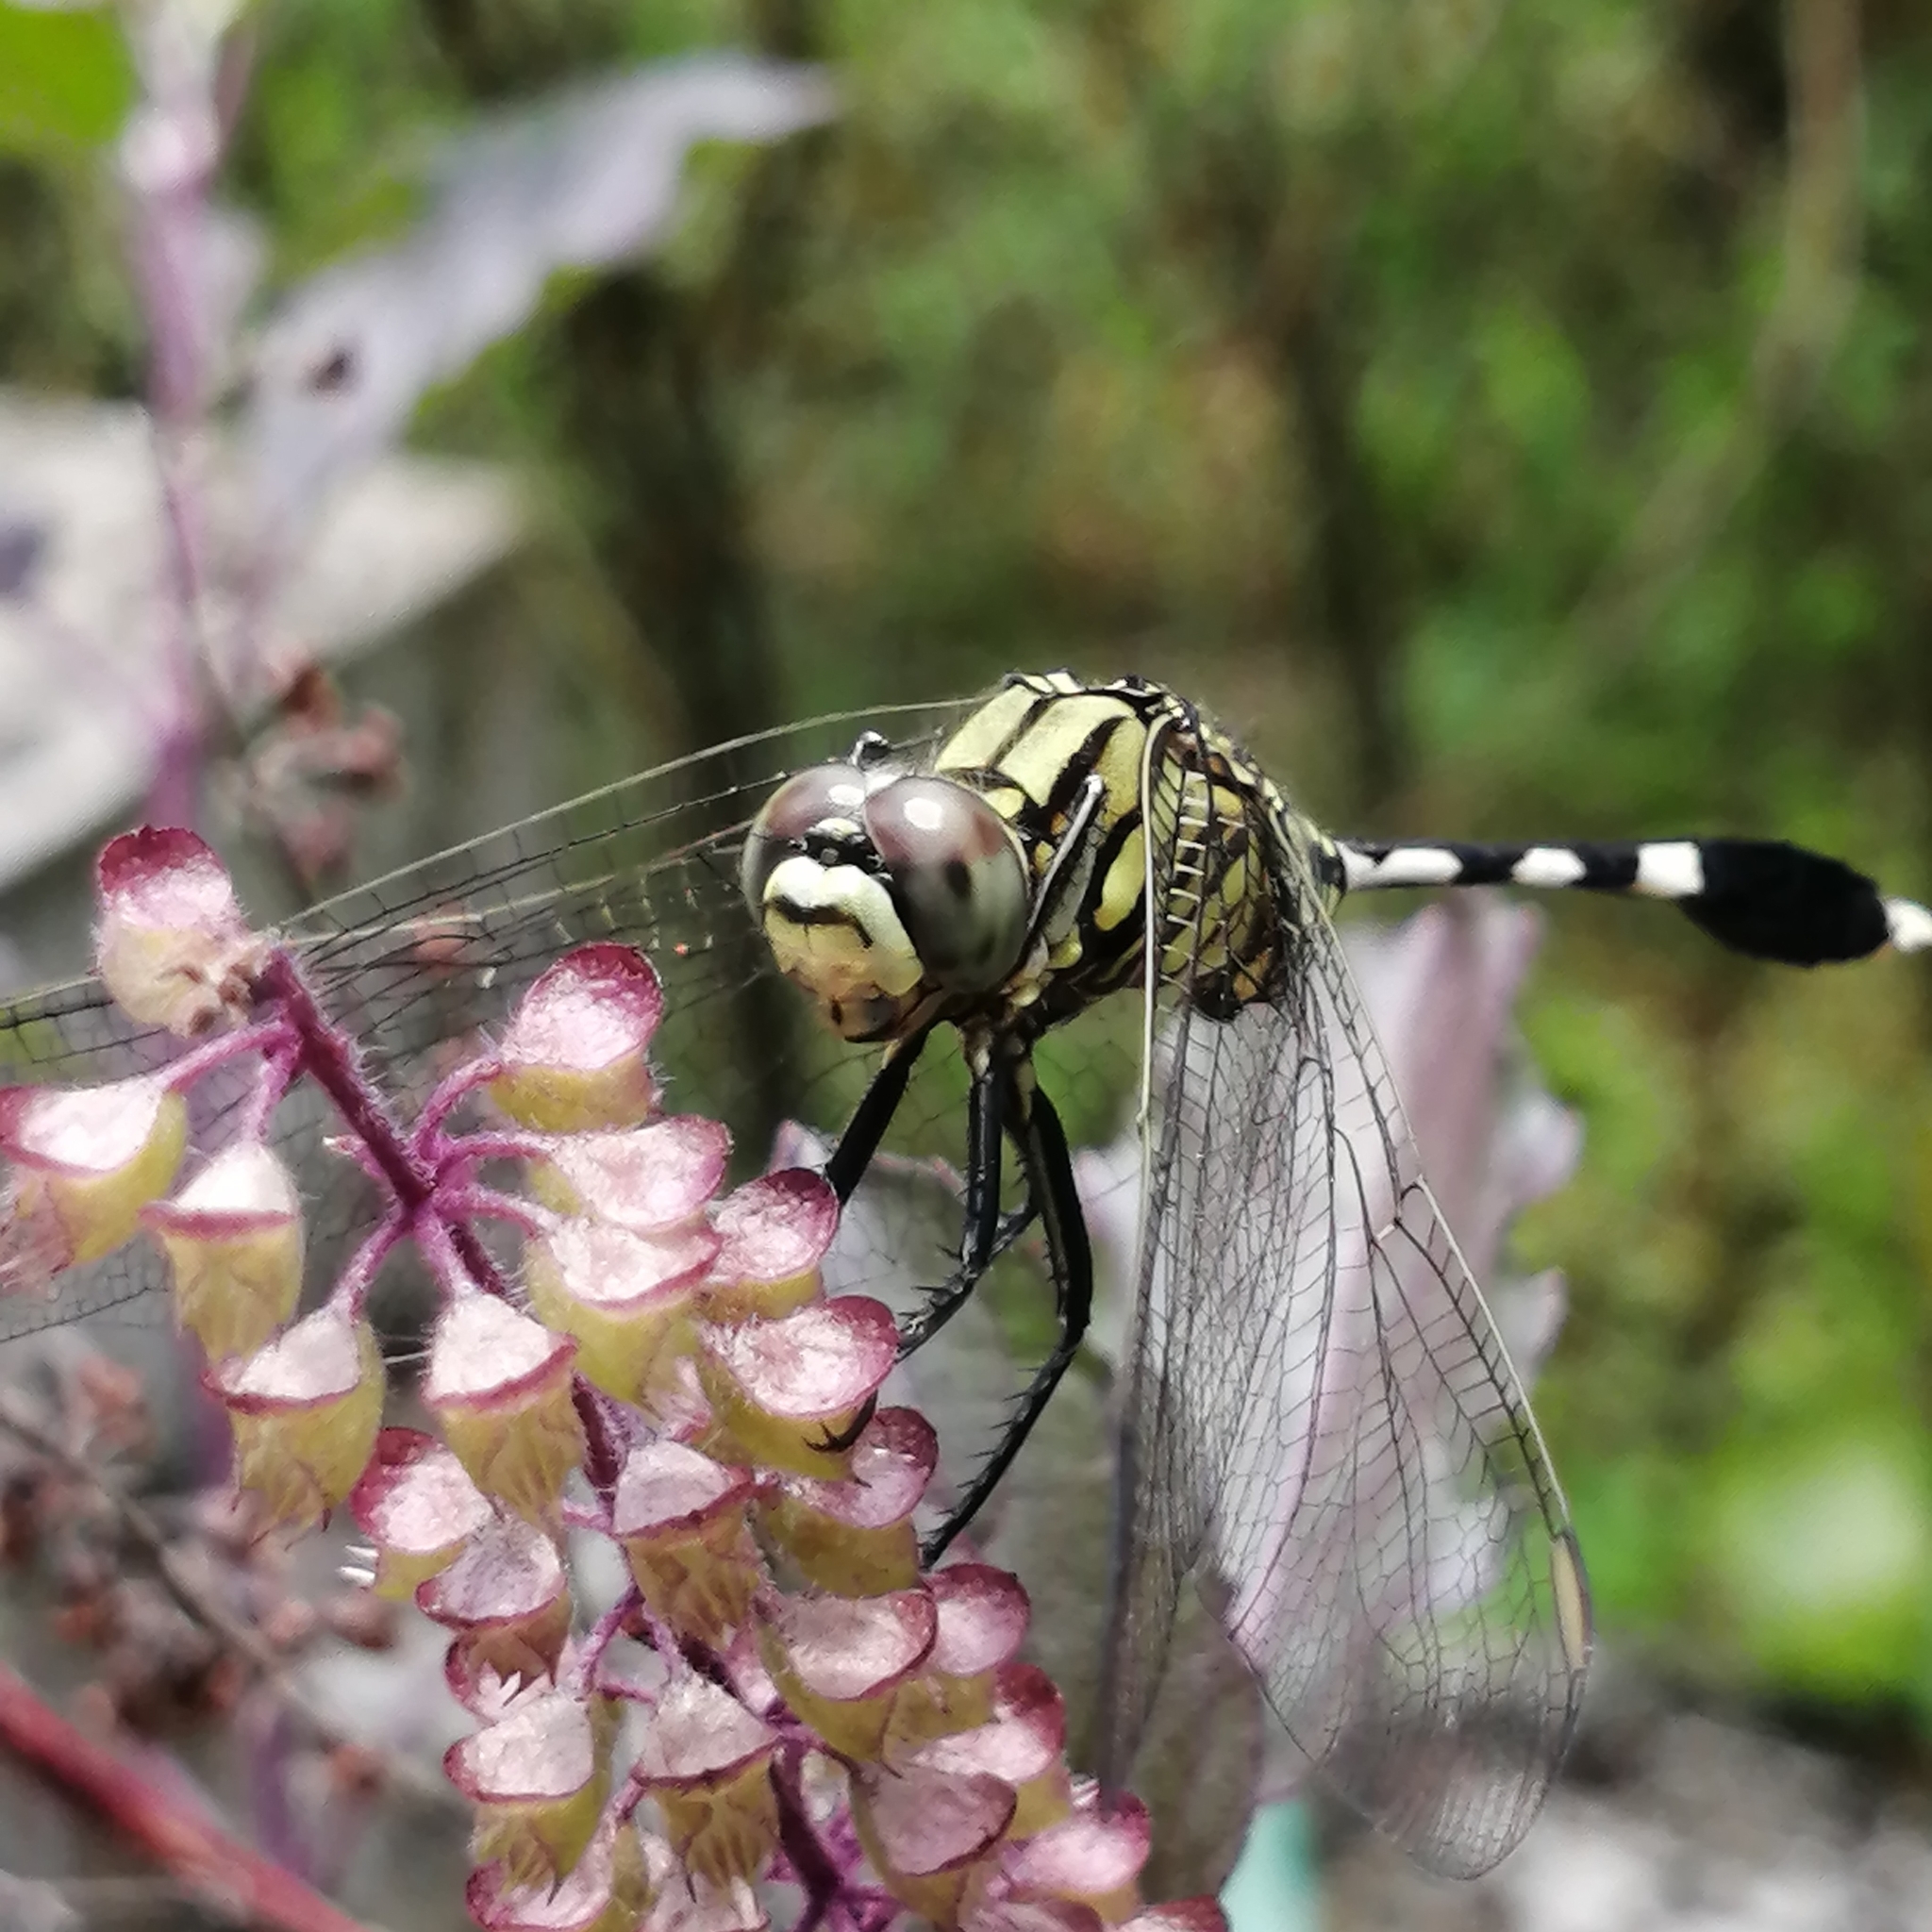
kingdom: Animalia
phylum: Arthropoda
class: Insecta
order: Odonata
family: Libellulidae
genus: Orthetrum
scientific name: Orthetrum sabina
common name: Slender skimmer
